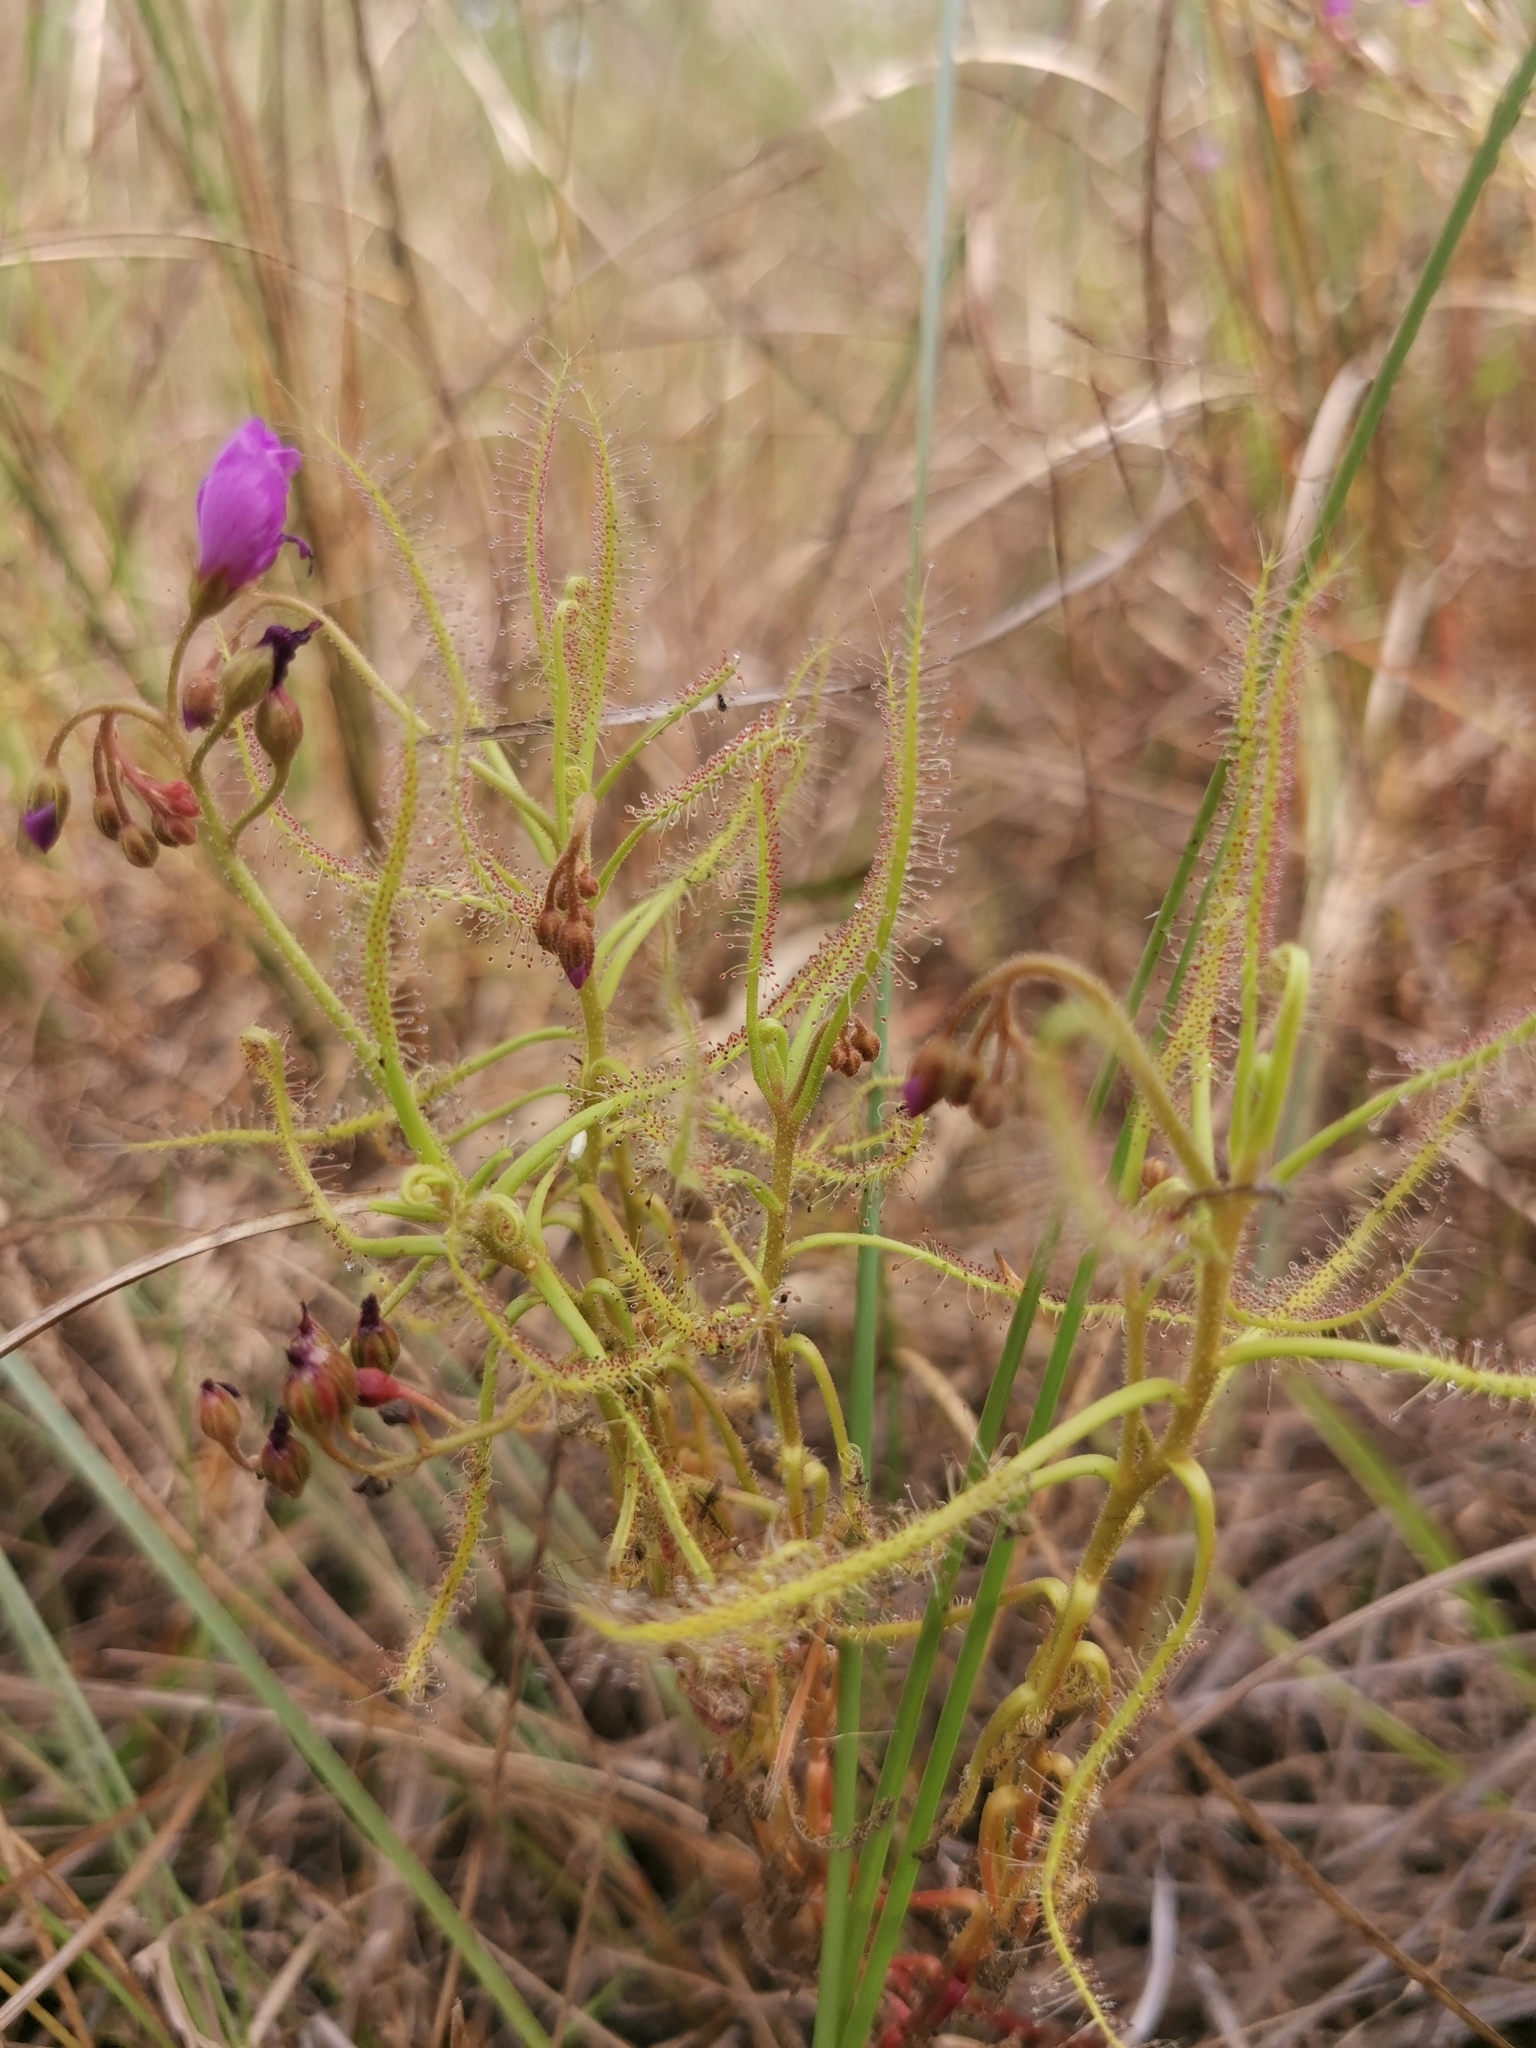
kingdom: Plantae
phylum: Tracheophyta
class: Magnoliopsida
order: Caryophyllales
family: Droseraceae
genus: Drosera
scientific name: Drosera indica
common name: Indian sundew
